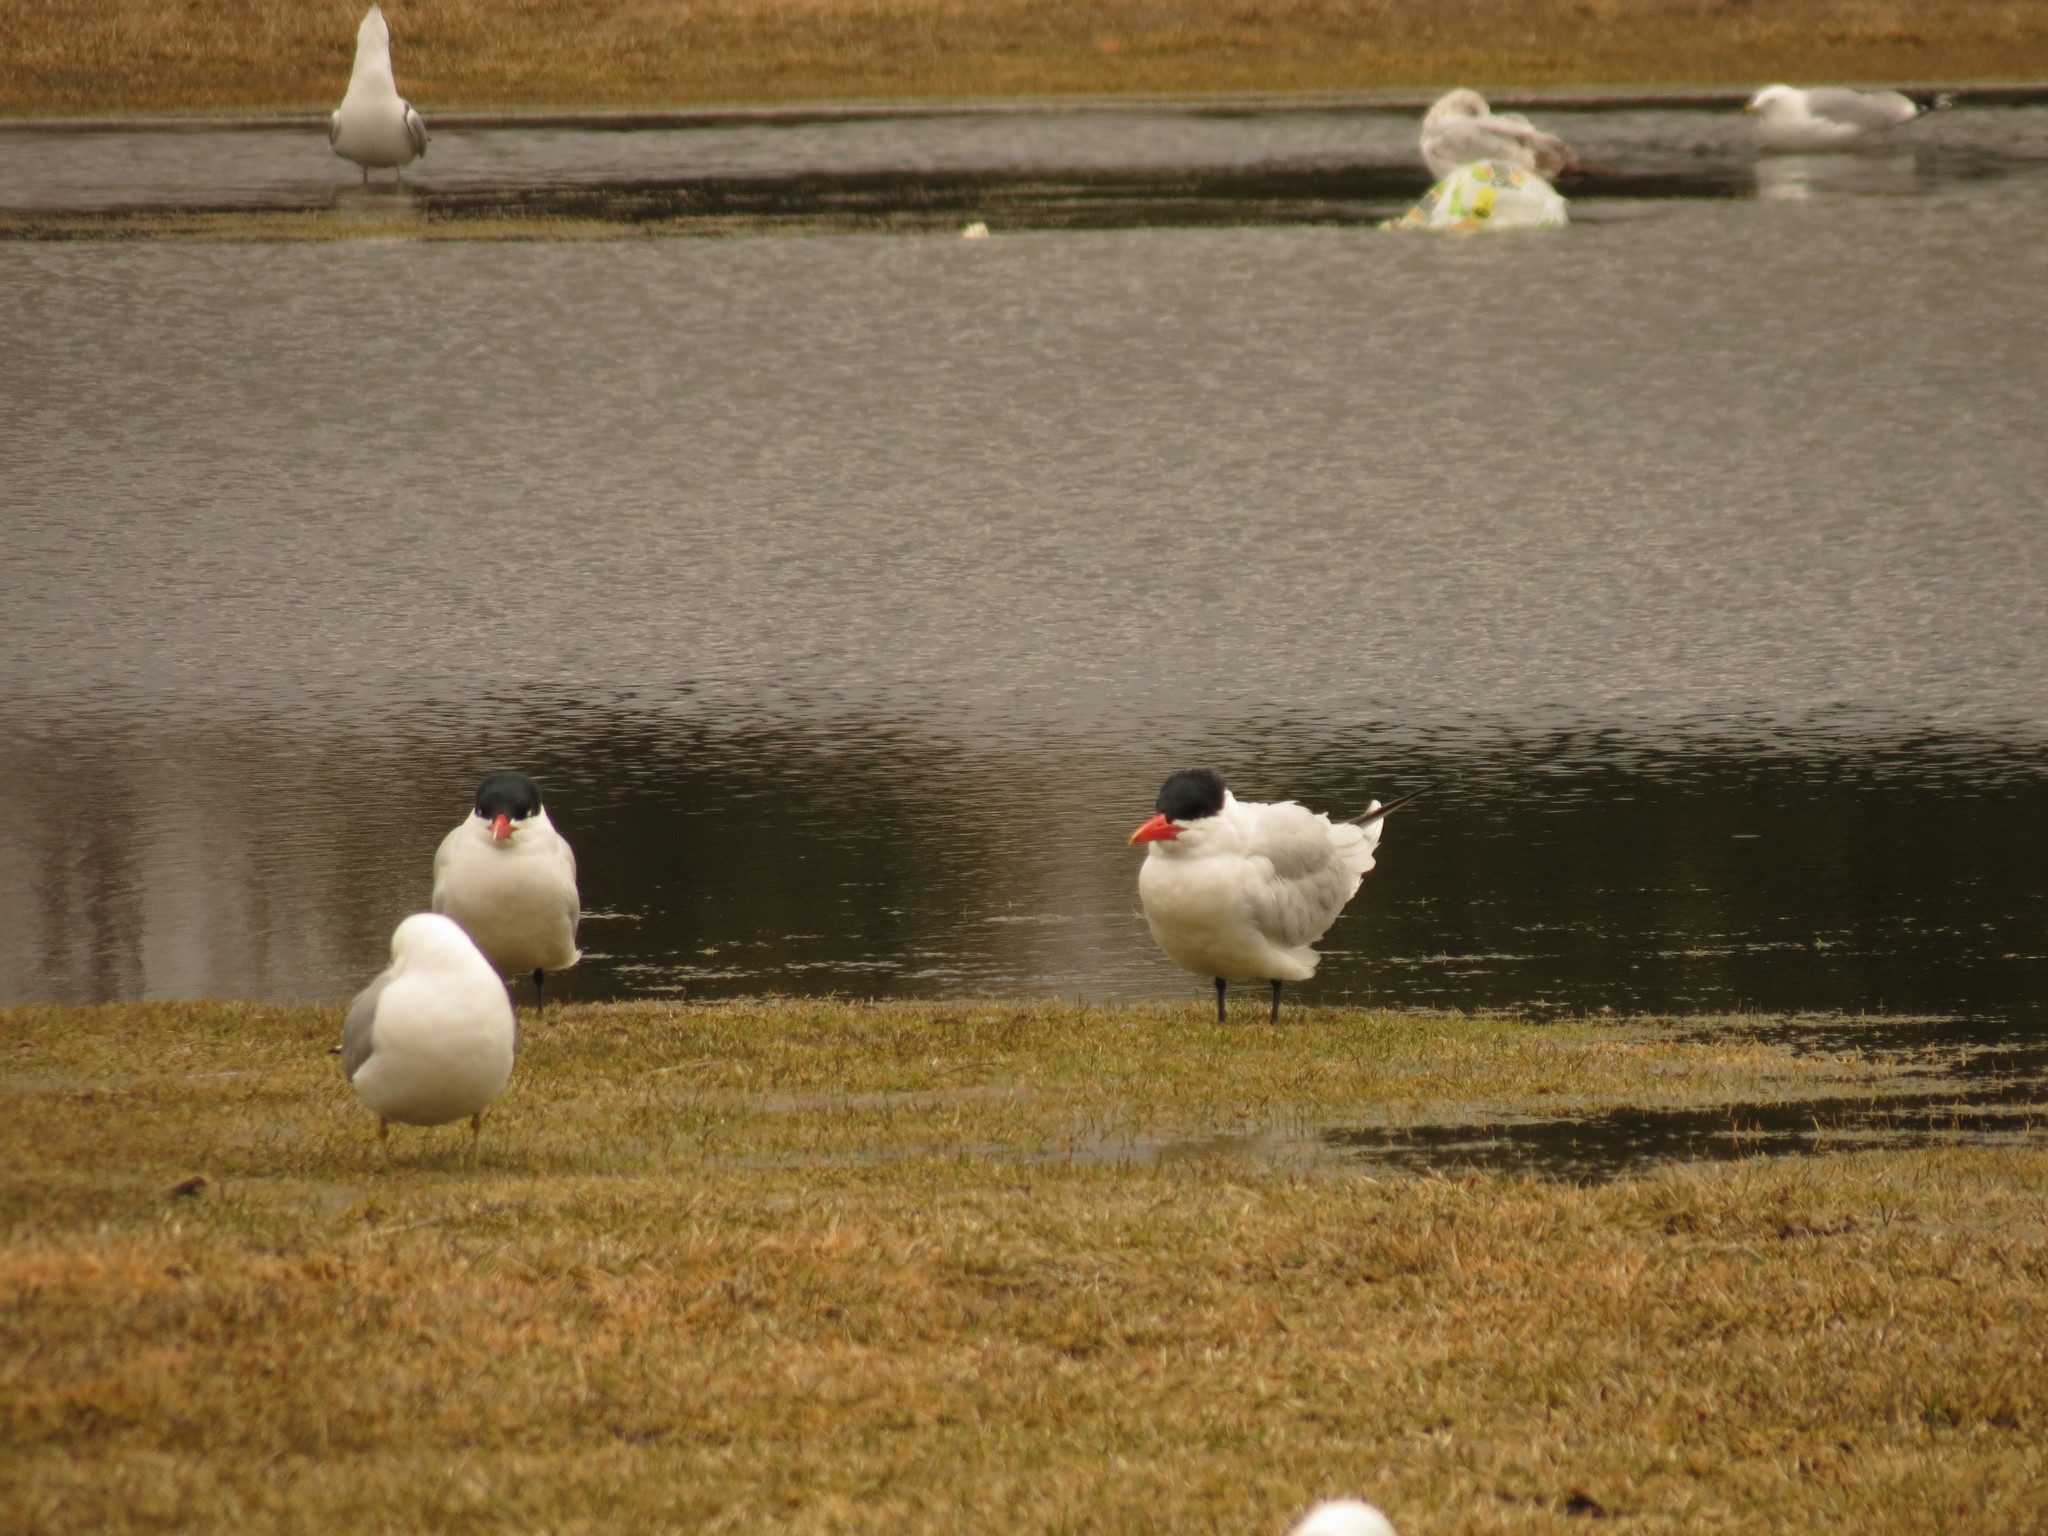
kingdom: Animalia
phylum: Chordata
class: Aves
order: Charadriiformes
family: Laridae
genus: Hydroprogne
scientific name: Hydroprogne caspia
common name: Caspian tern
